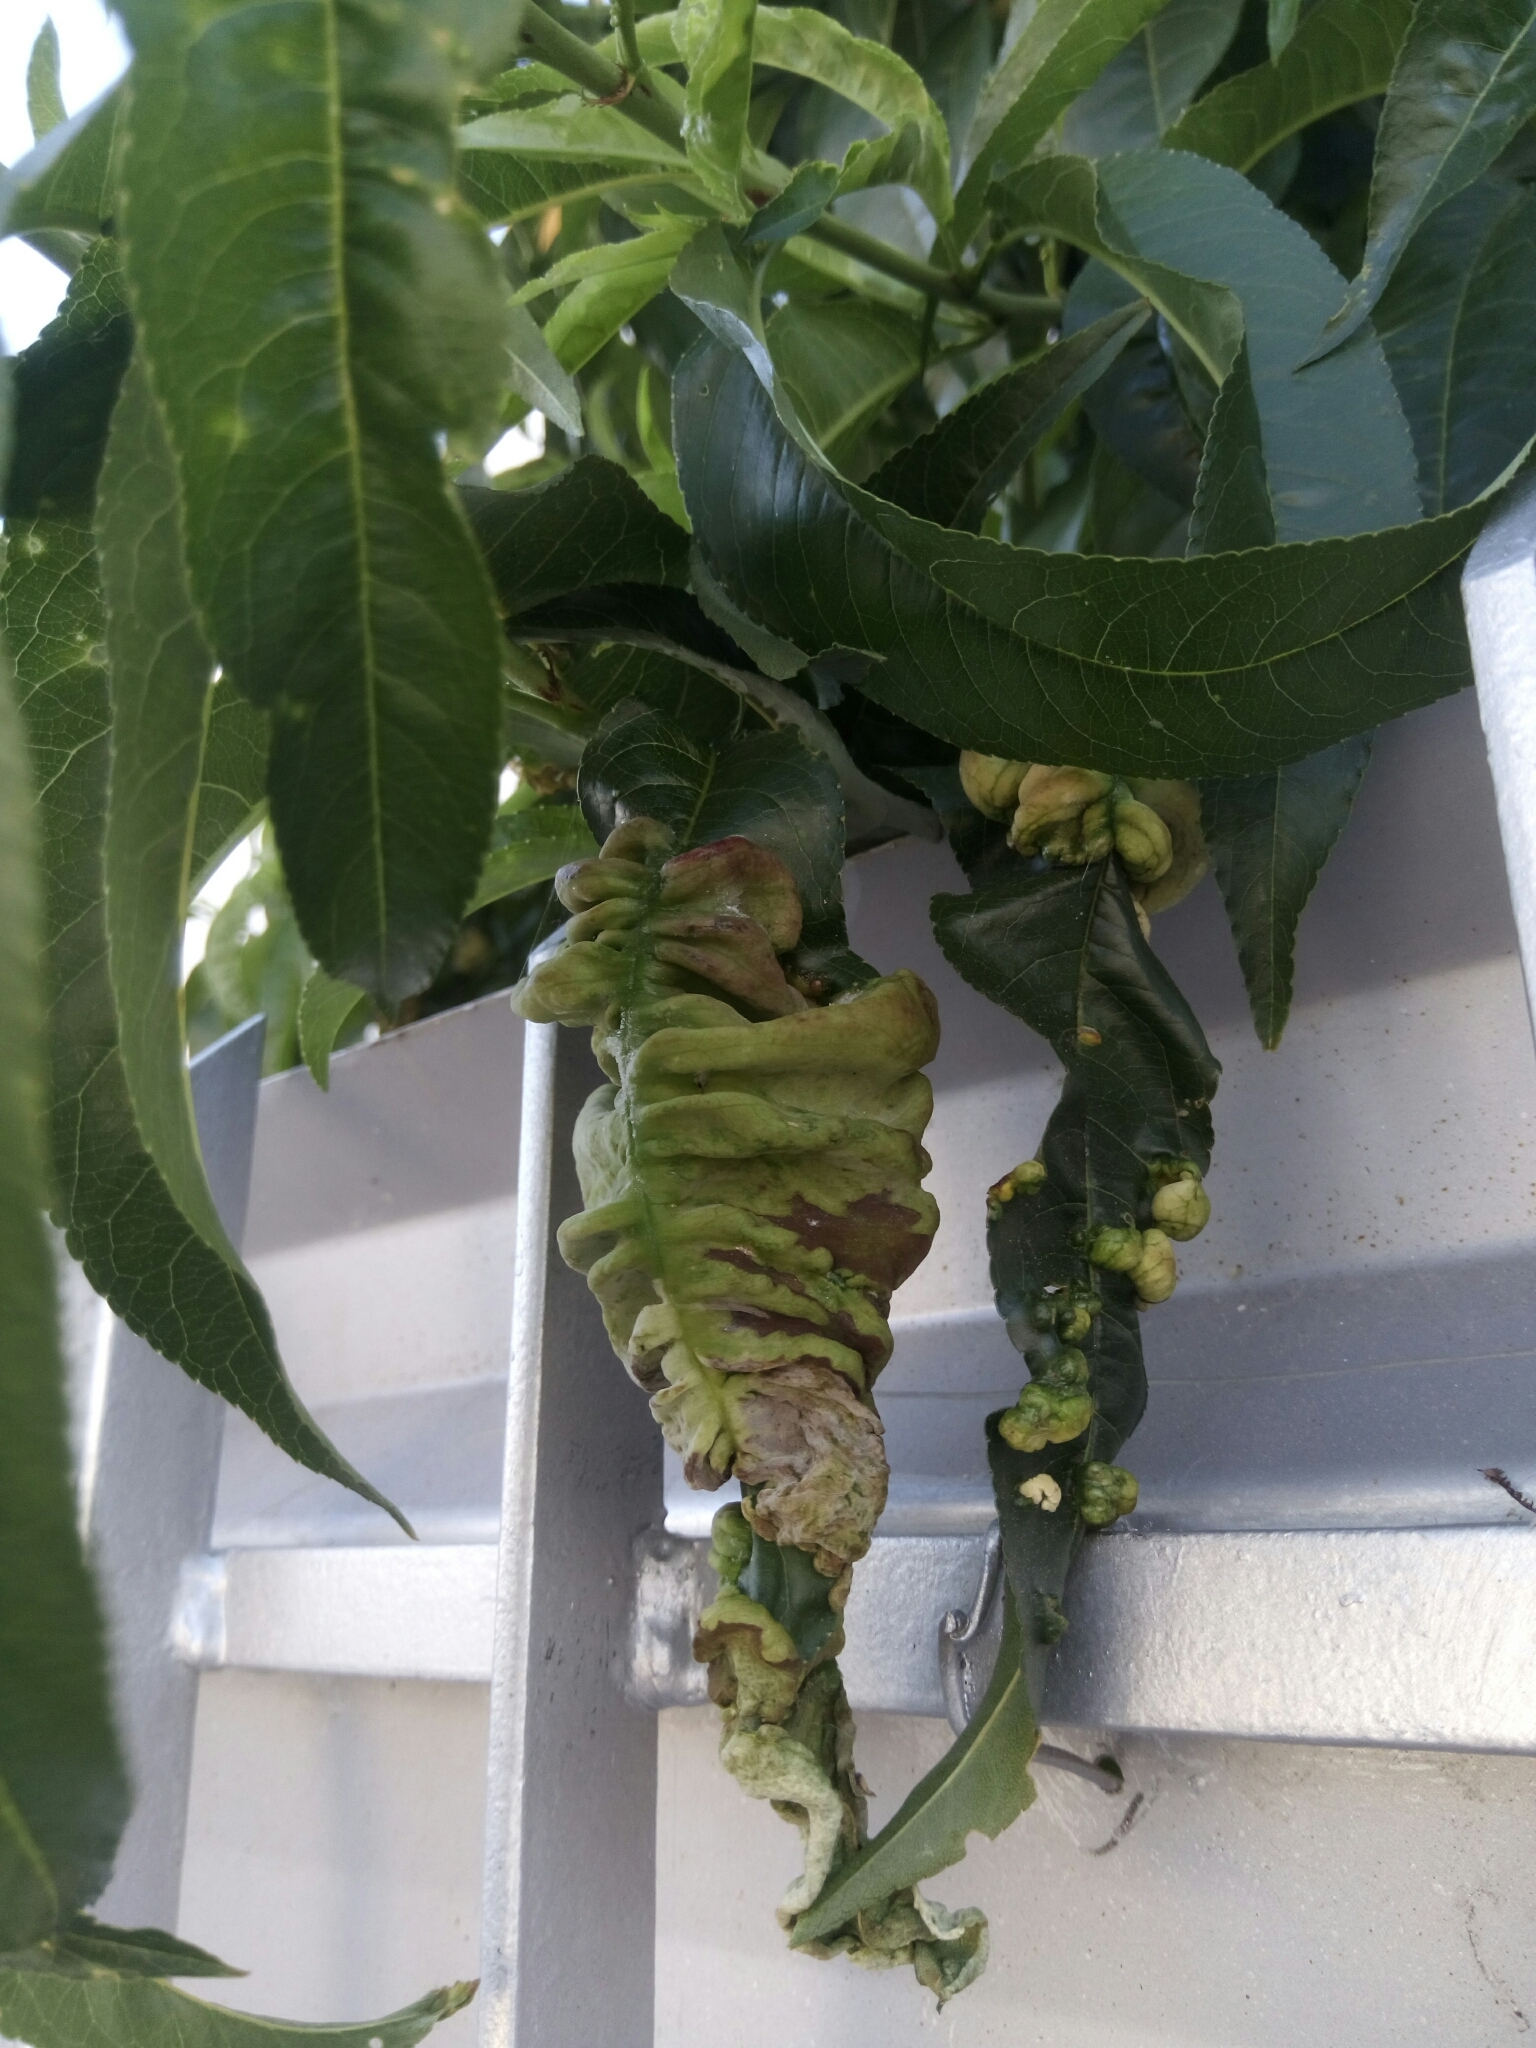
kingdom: Fungi
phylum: Ascomycota
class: Taphrinomycetes
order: Taphrinales
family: Taphrinaceae
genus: Taphrina
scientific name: Taphrina deformans
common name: Peach leaf curl
